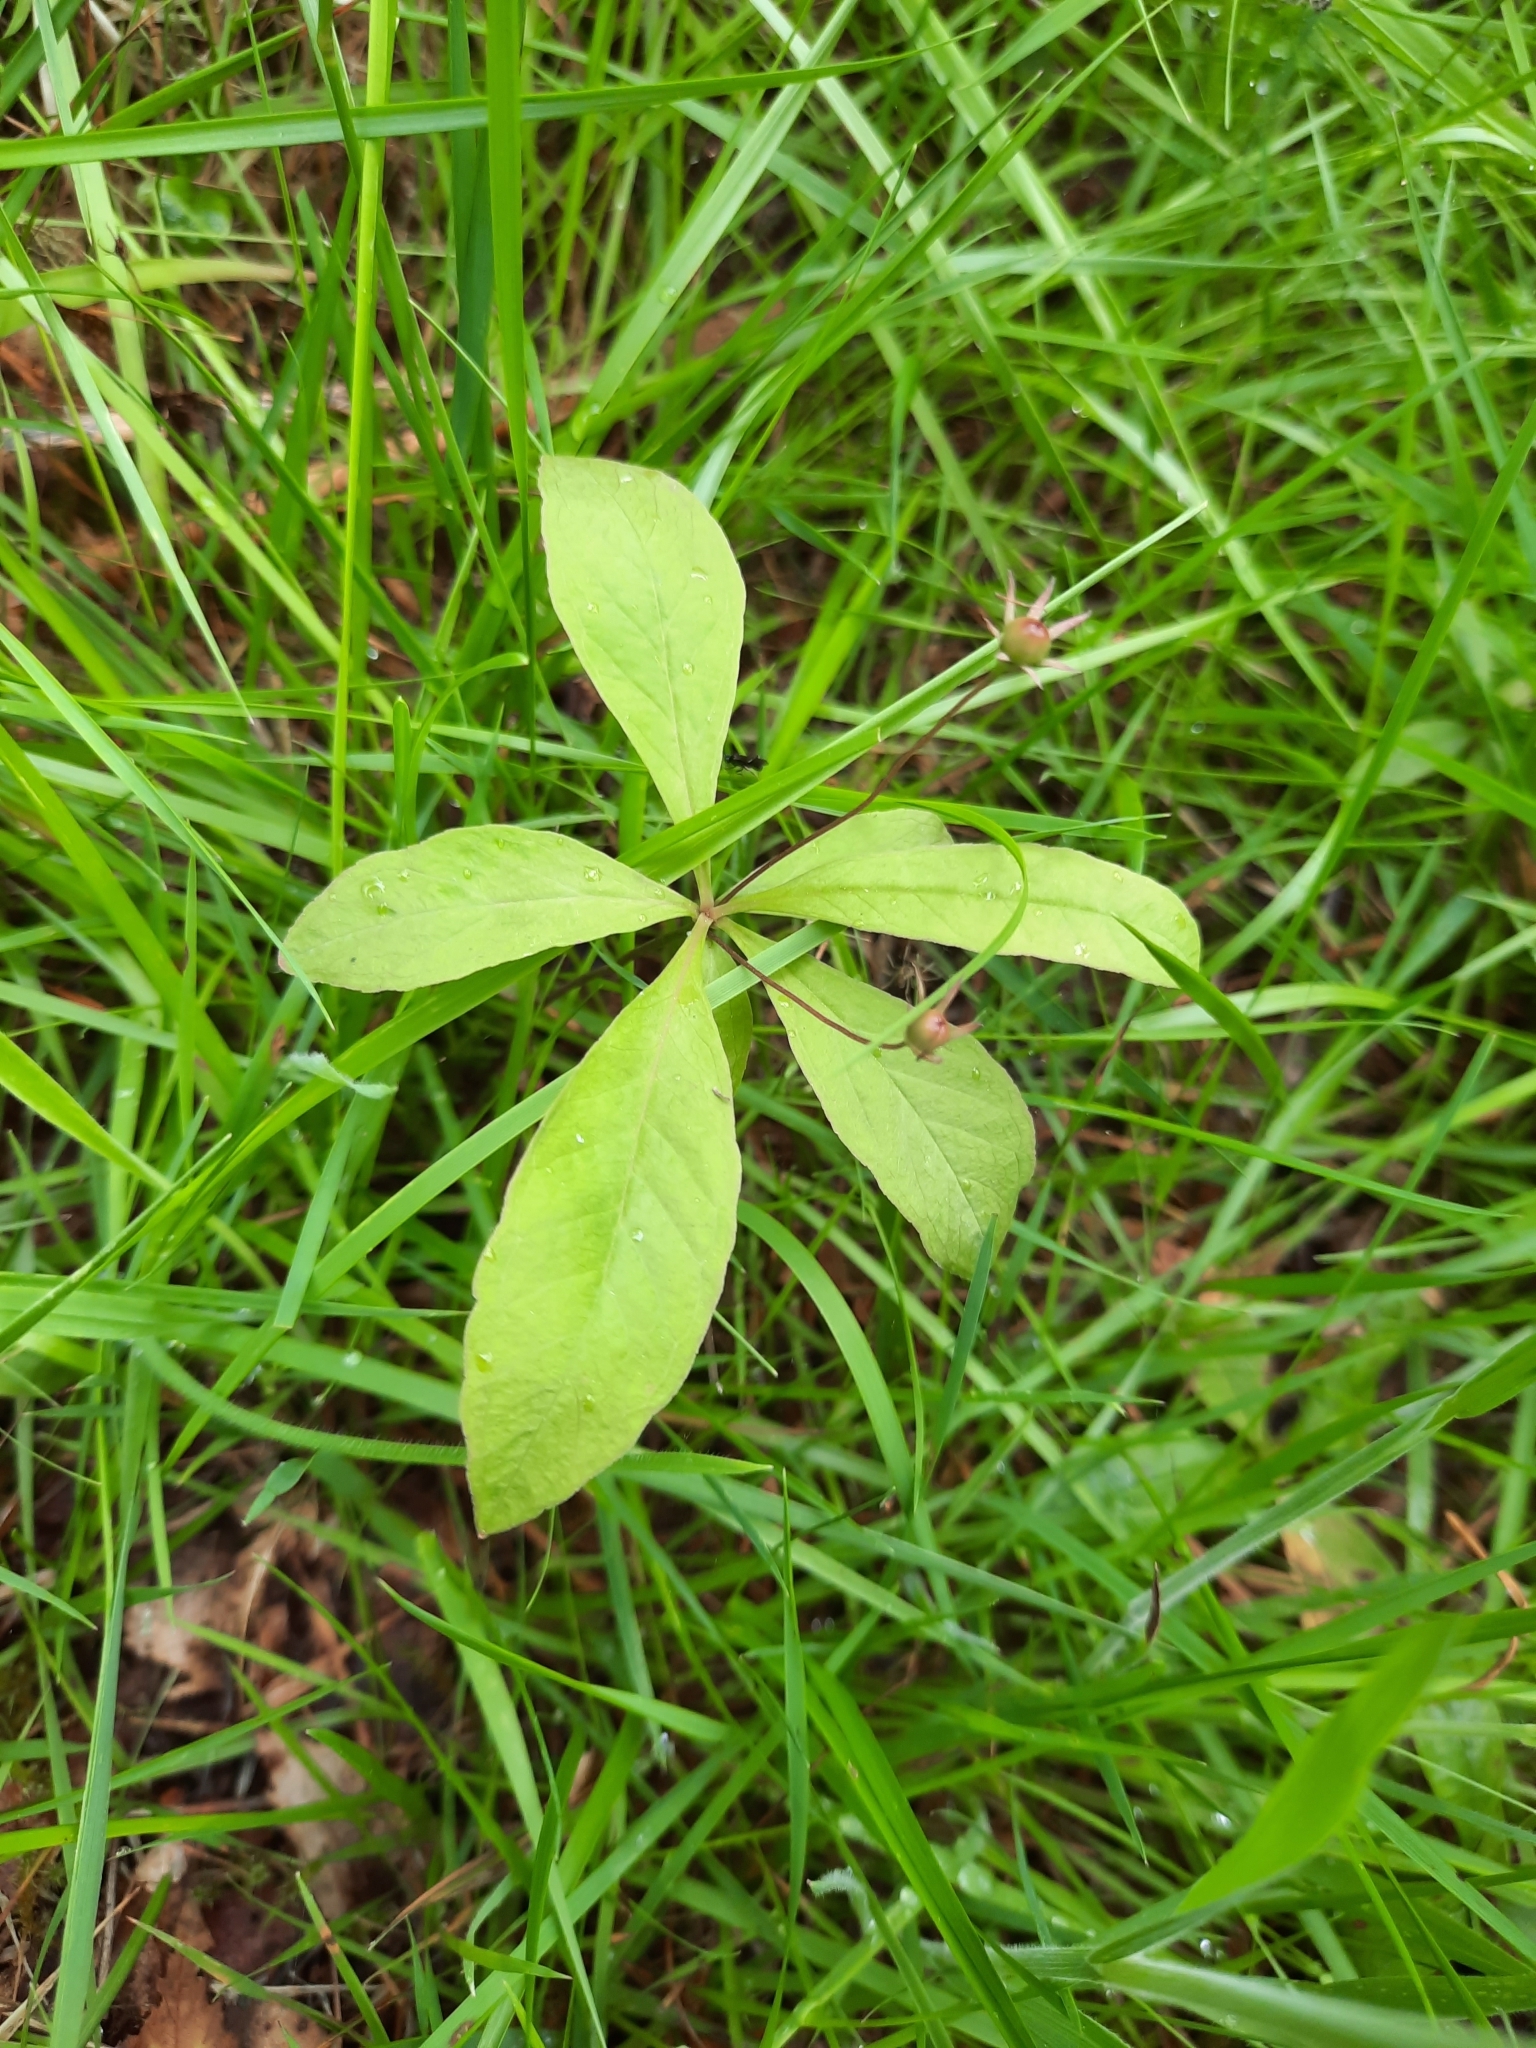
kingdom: Plantae
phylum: Tracheophyta
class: Magnoliopsida
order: Ericales
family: Primulaceae
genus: Lysimachia
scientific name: Lysimachia europaea
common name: Arctic starflower
